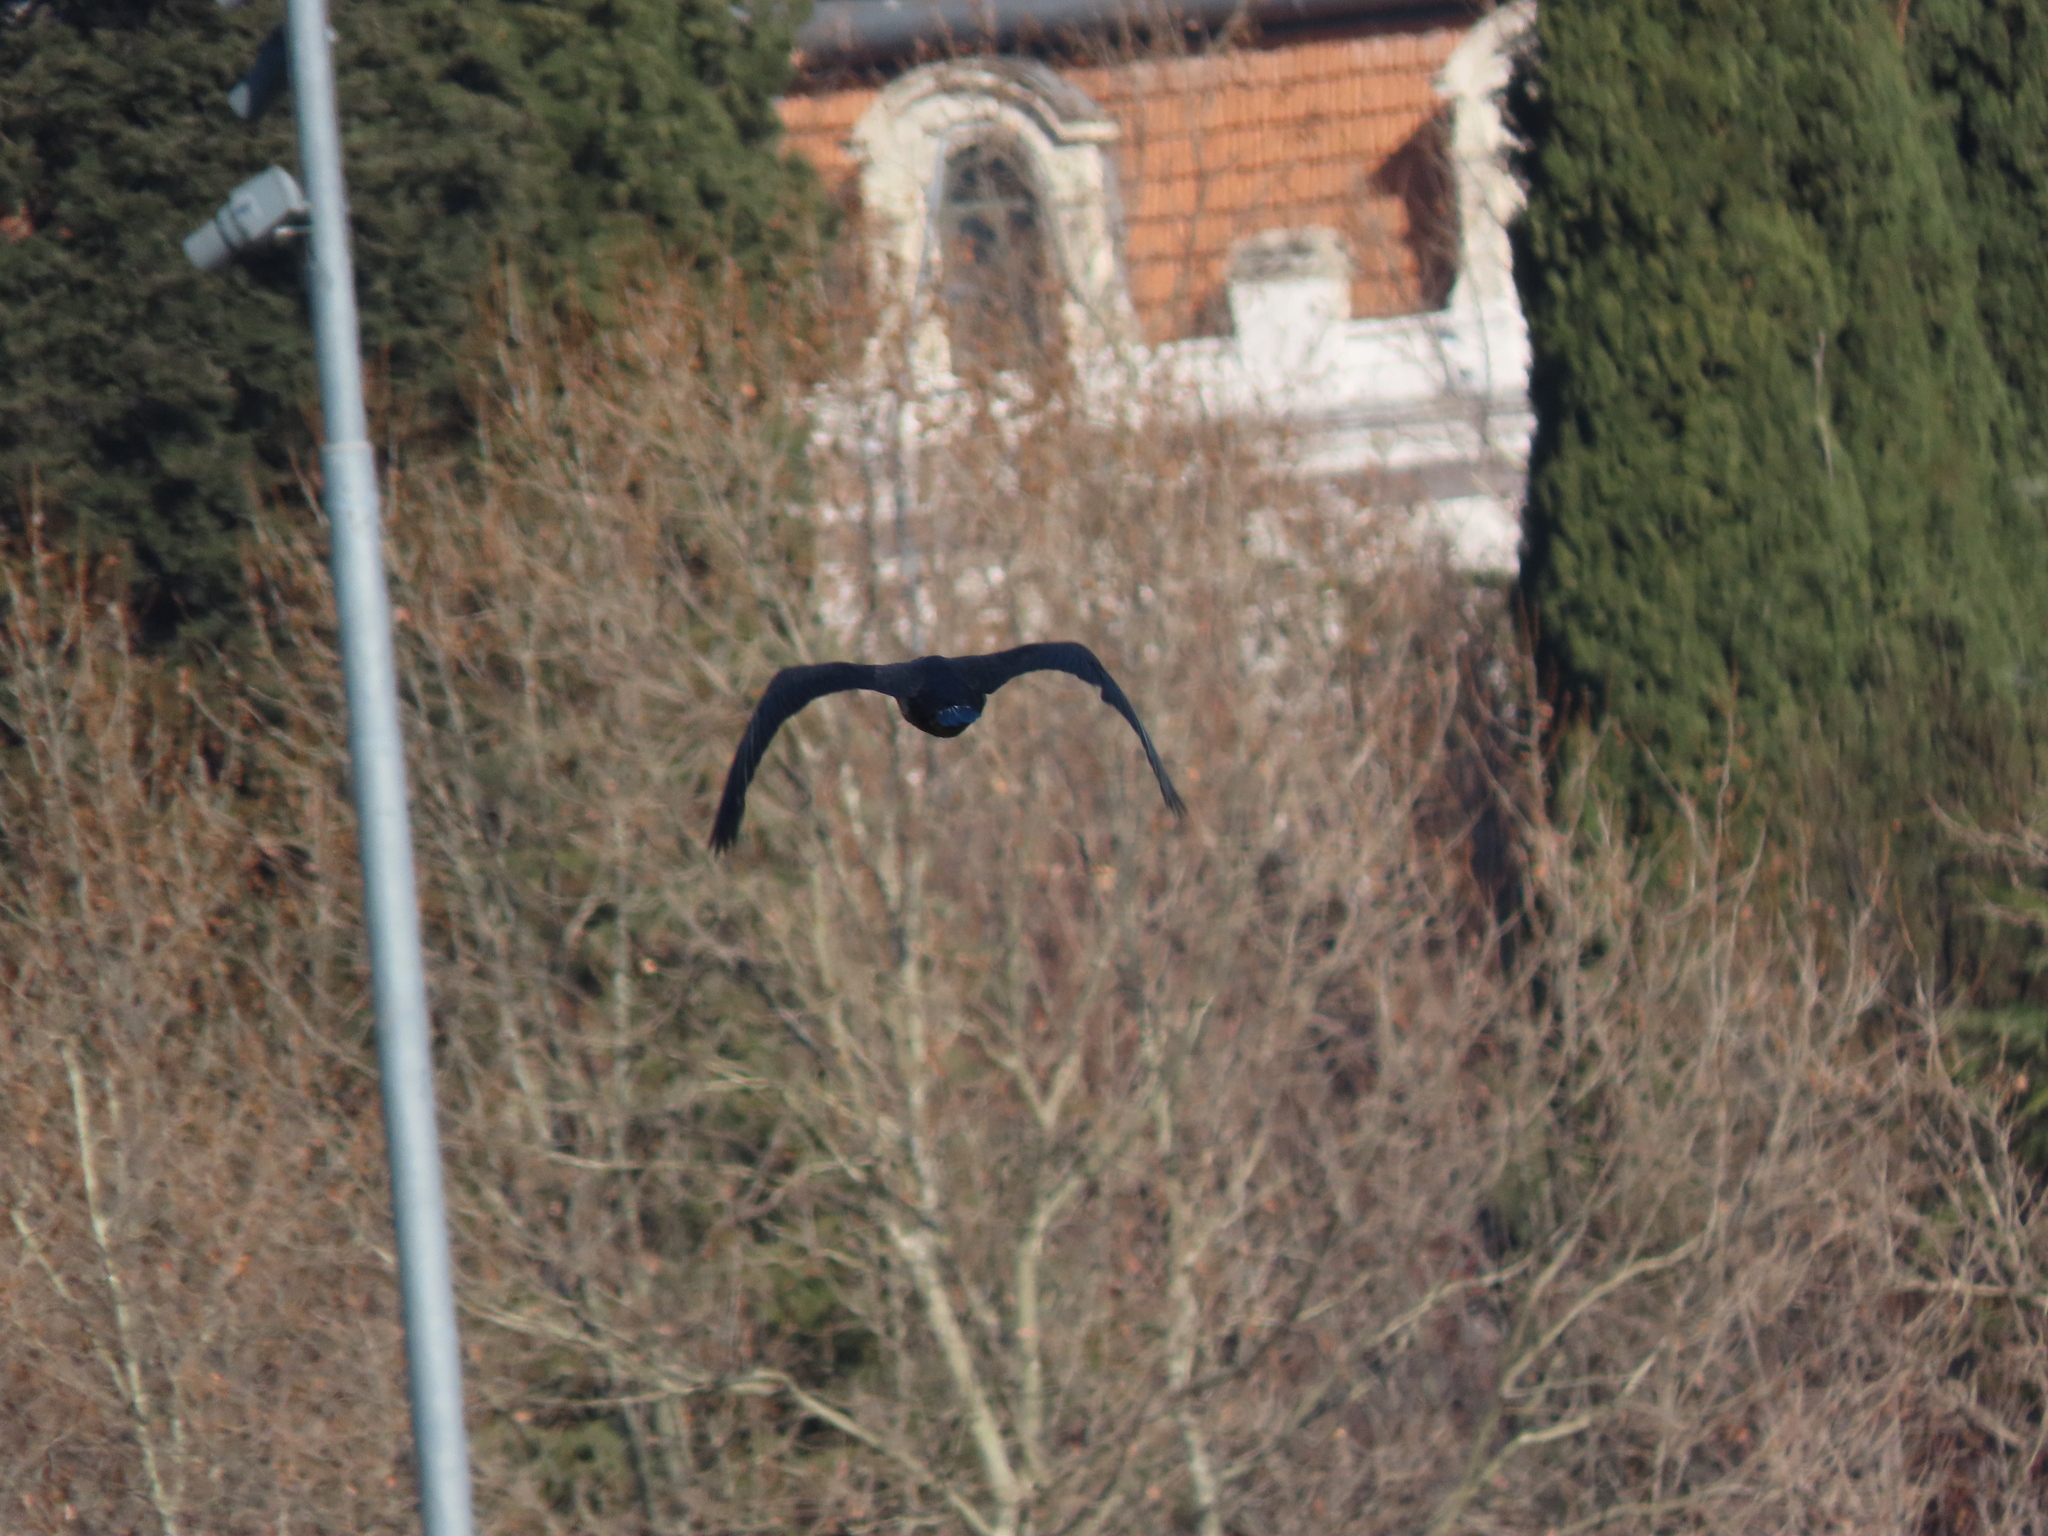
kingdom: Animalia
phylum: Chordata
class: Aves
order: Suliformes
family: Phalacrocoracidae
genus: Phalacrocorax
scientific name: Phalacrocorax carbo
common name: Great cormorant
